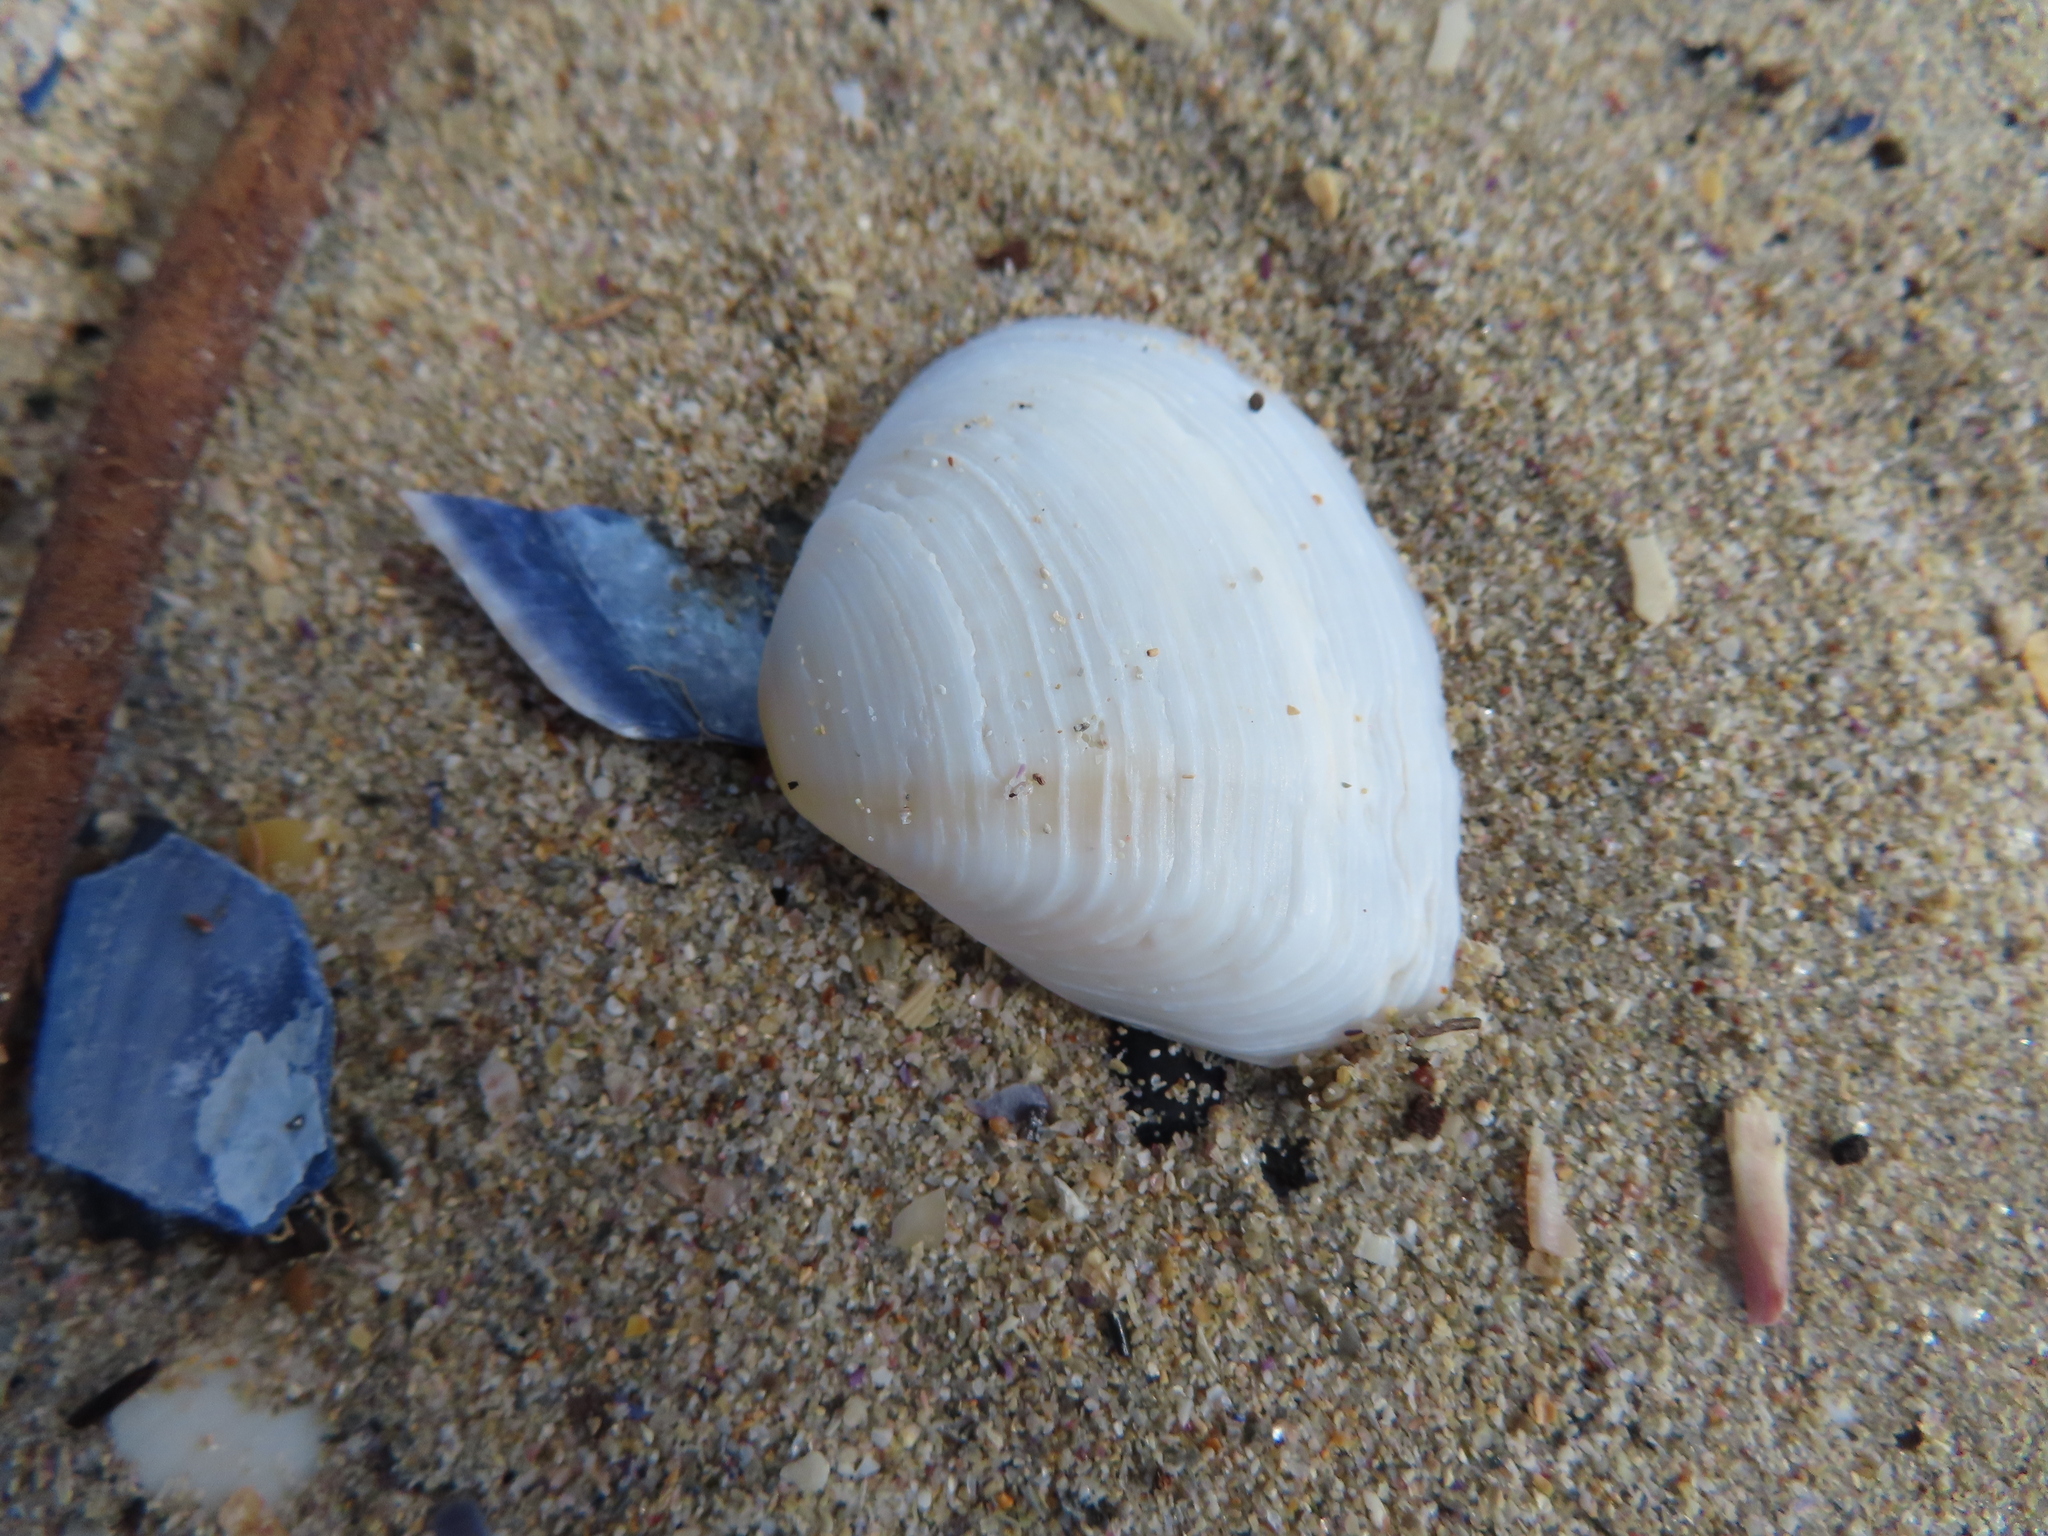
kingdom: Animalia
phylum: Mollusca
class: Bivalvia
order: Venerida
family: Veneridae
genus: Tivela
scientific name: Tivela compressa
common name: Streaked sand clam
